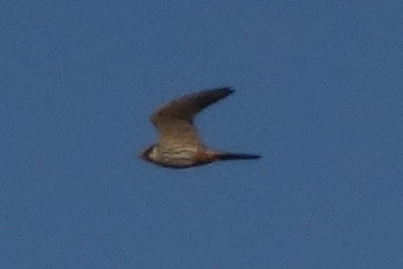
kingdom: Animalia
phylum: Chordata
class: Aves
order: Falconiformes
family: Falconidae
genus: Falco
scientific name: Falco subbuteo
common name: Eurasian hobby
